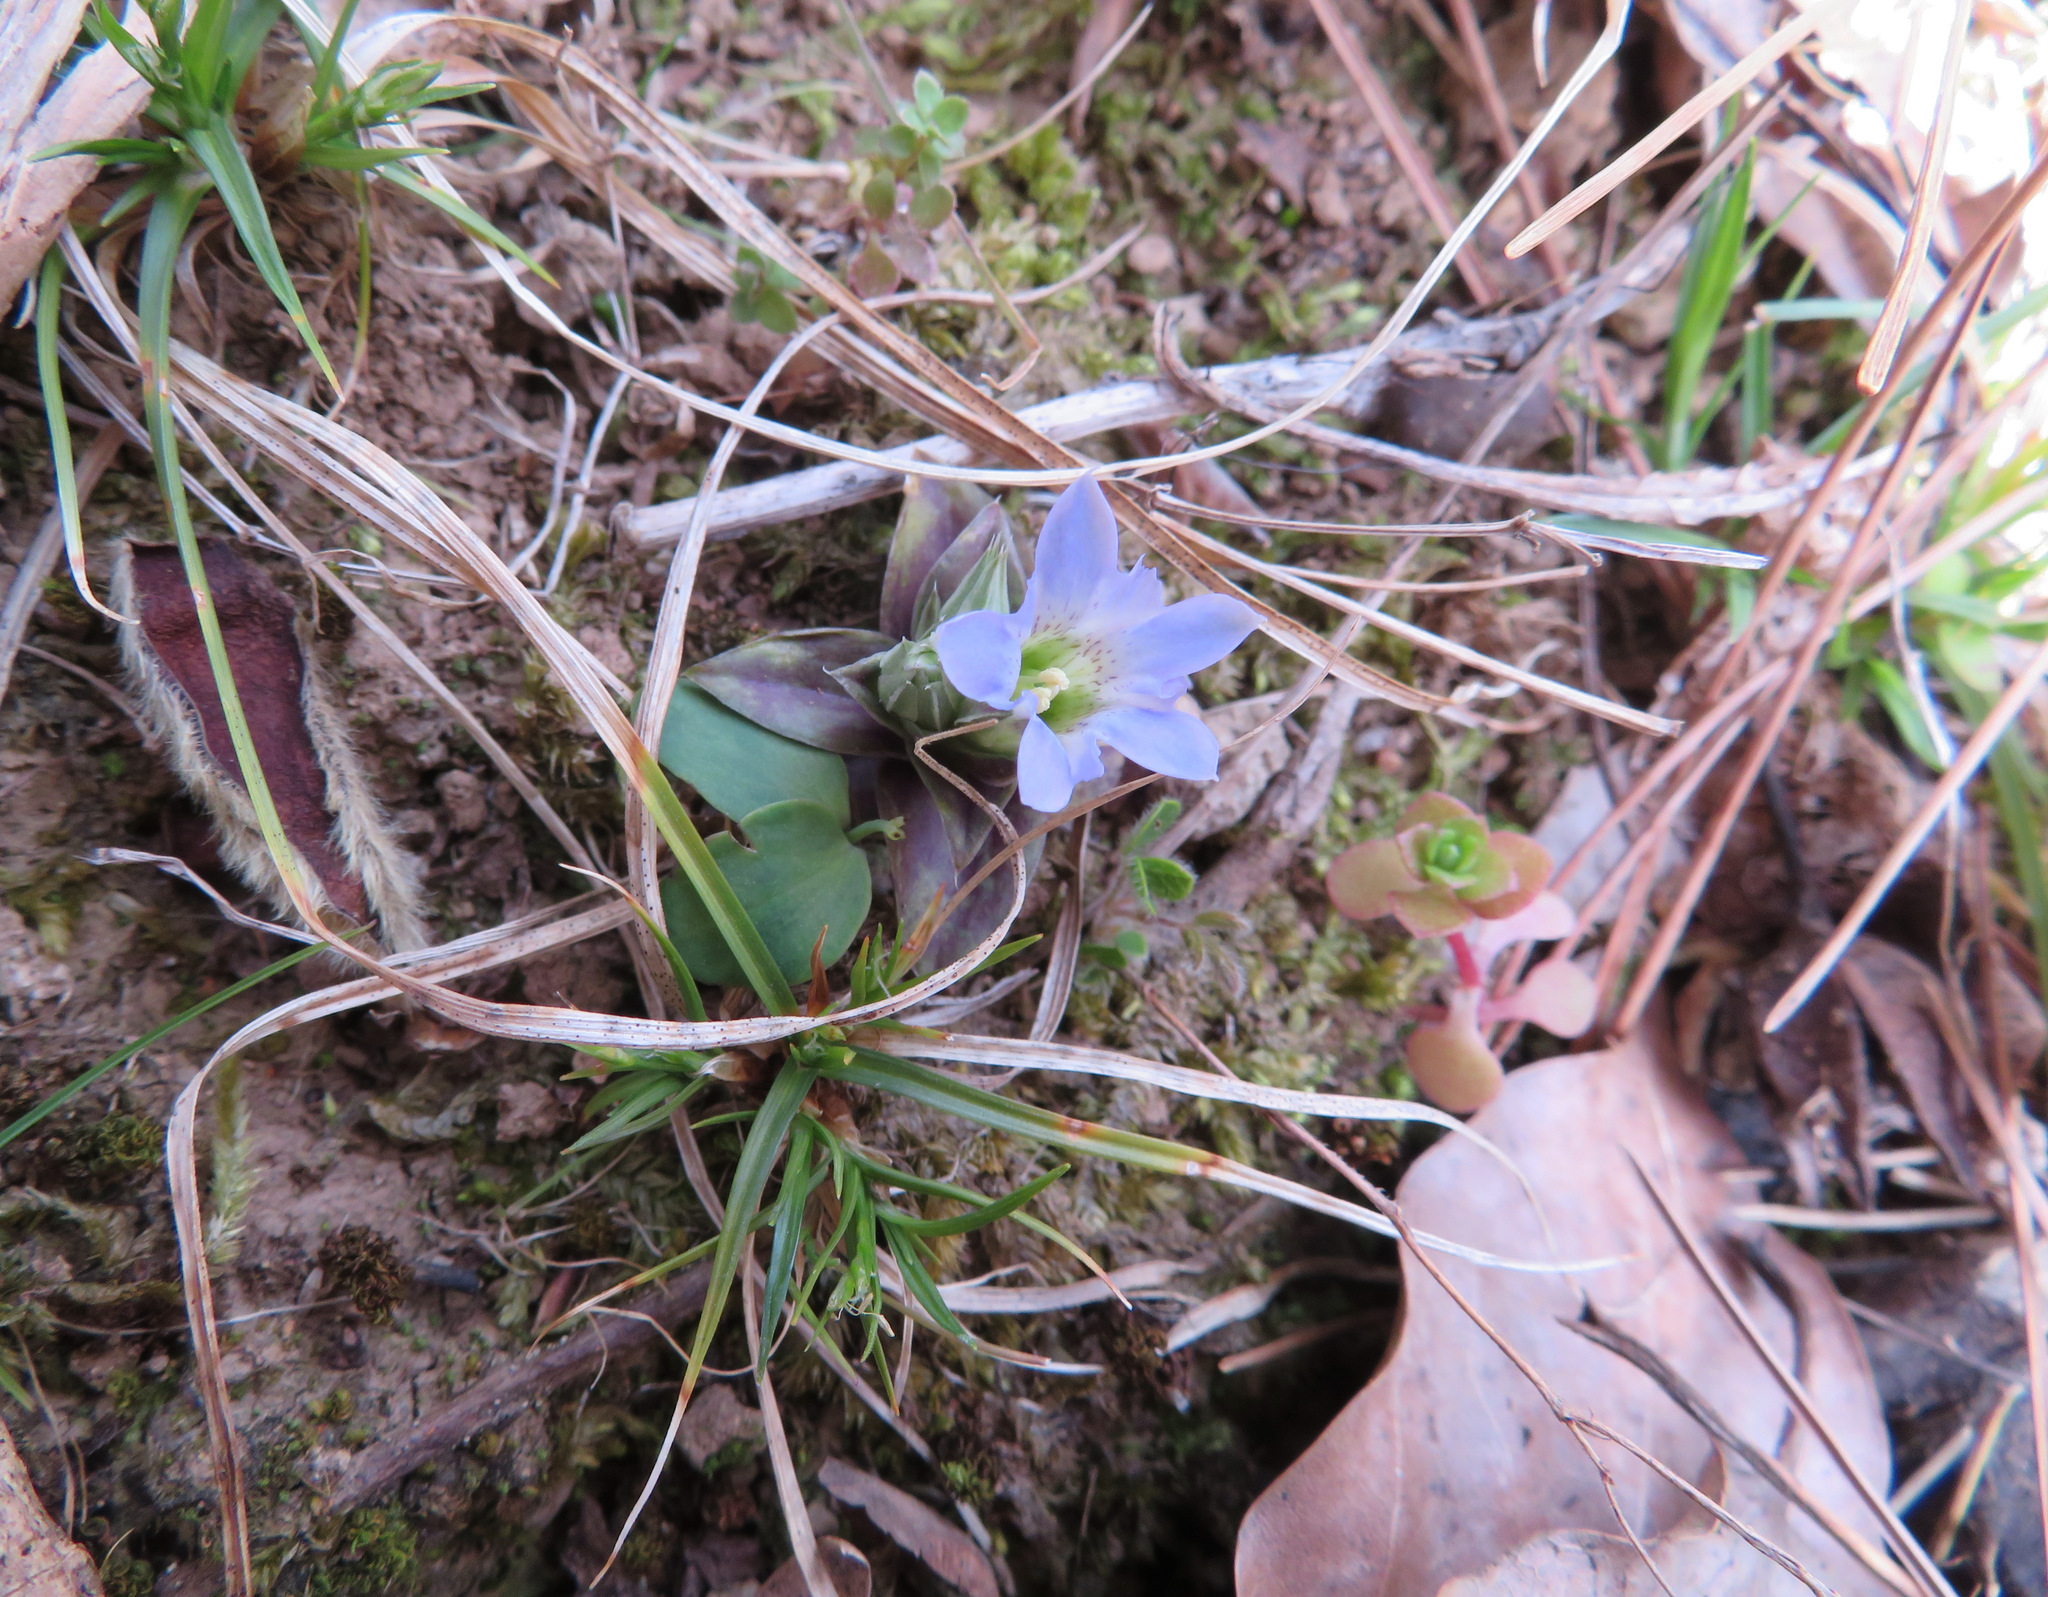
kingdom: Plantae
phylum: Tracheophyta
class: Magnoliopsida
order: Gentianales
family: Gentianaceae
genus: Gentiana
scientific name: Gentiana zollingeri
